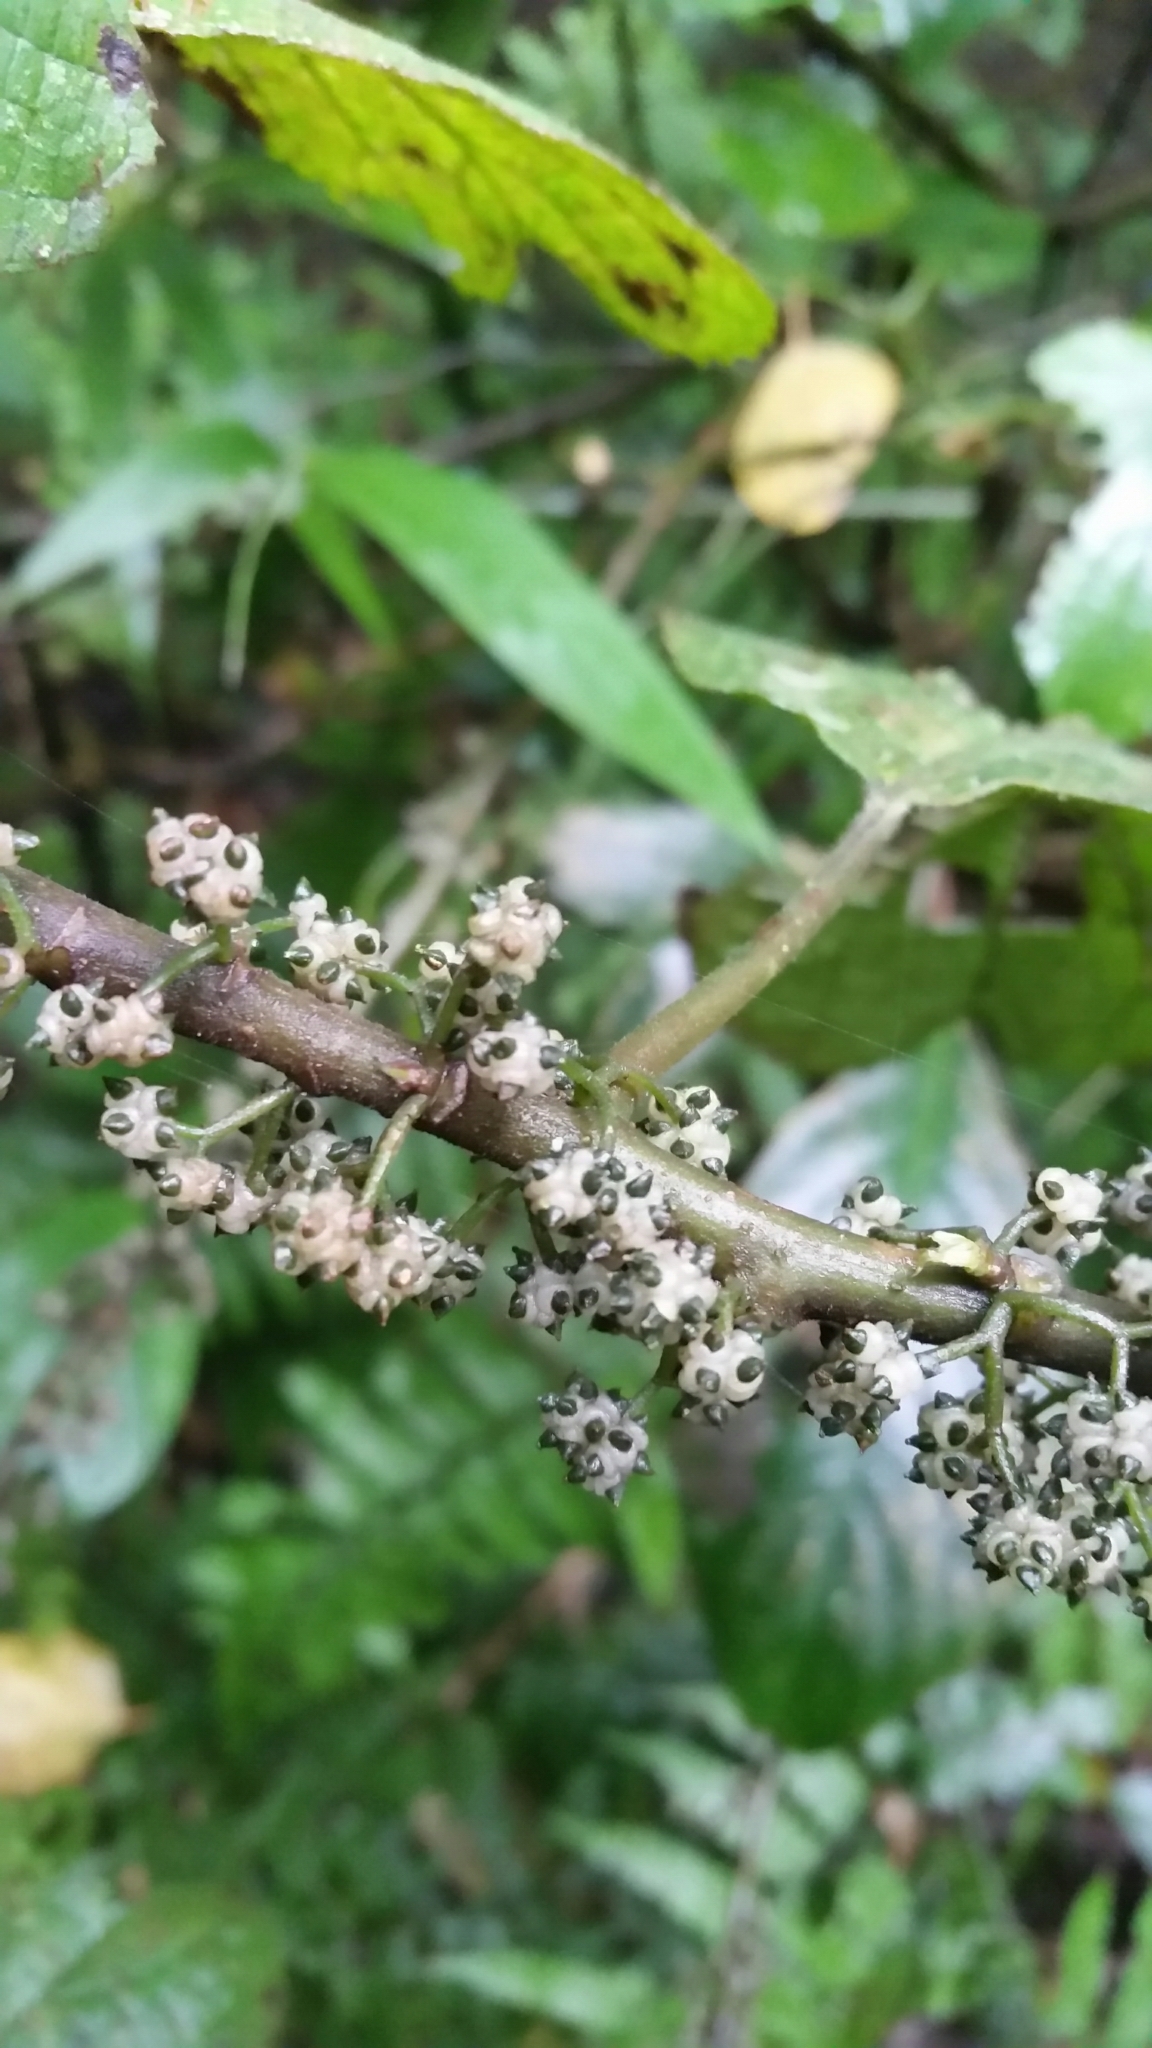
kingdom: Plantae
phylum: Tracheophyta
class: Magnoliopsida
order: Rosales
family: Urticaceae
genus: Oreocnide
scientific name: Oreocnide obovata
